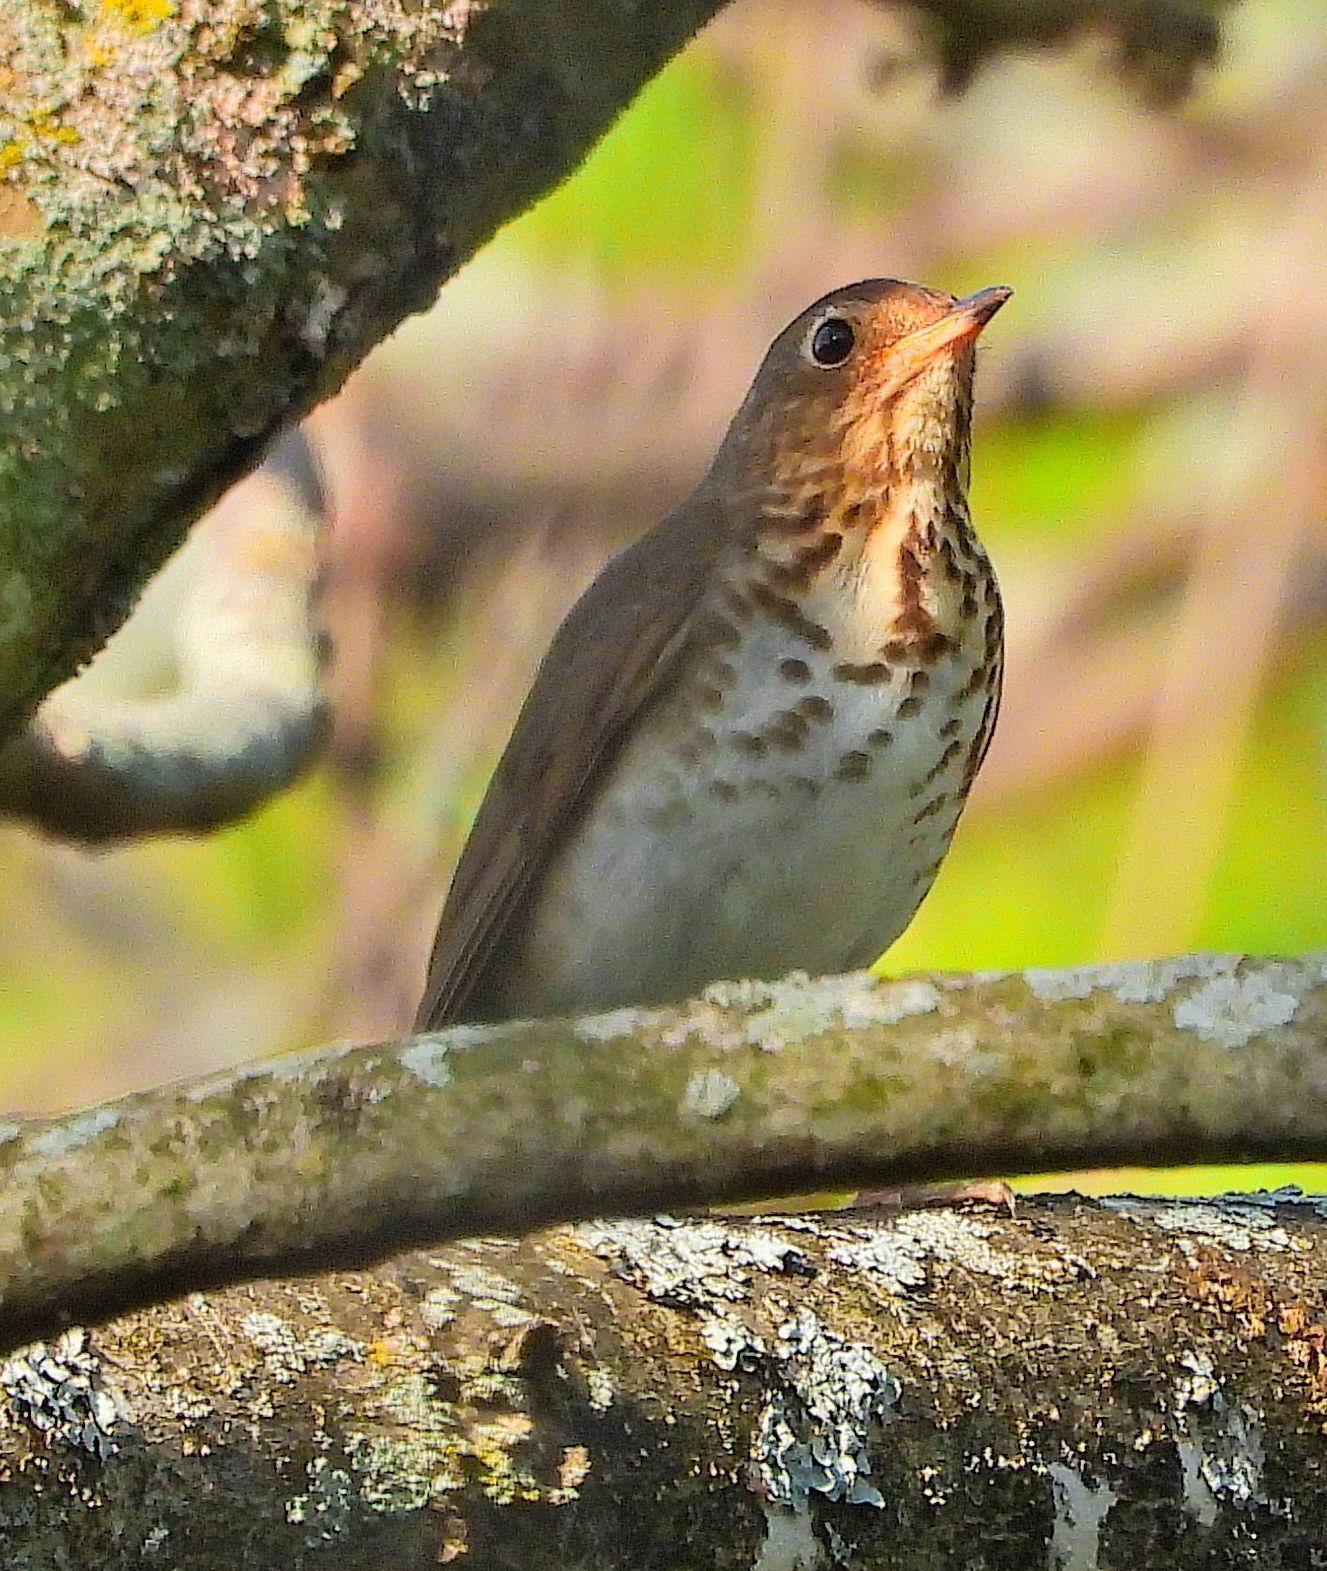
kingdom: Animalia
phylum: Chordata
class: Aves
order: Passeriformes
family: Turdidae
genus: Catharus
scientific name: Catharus ustulatus
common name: Swainson's thrush
